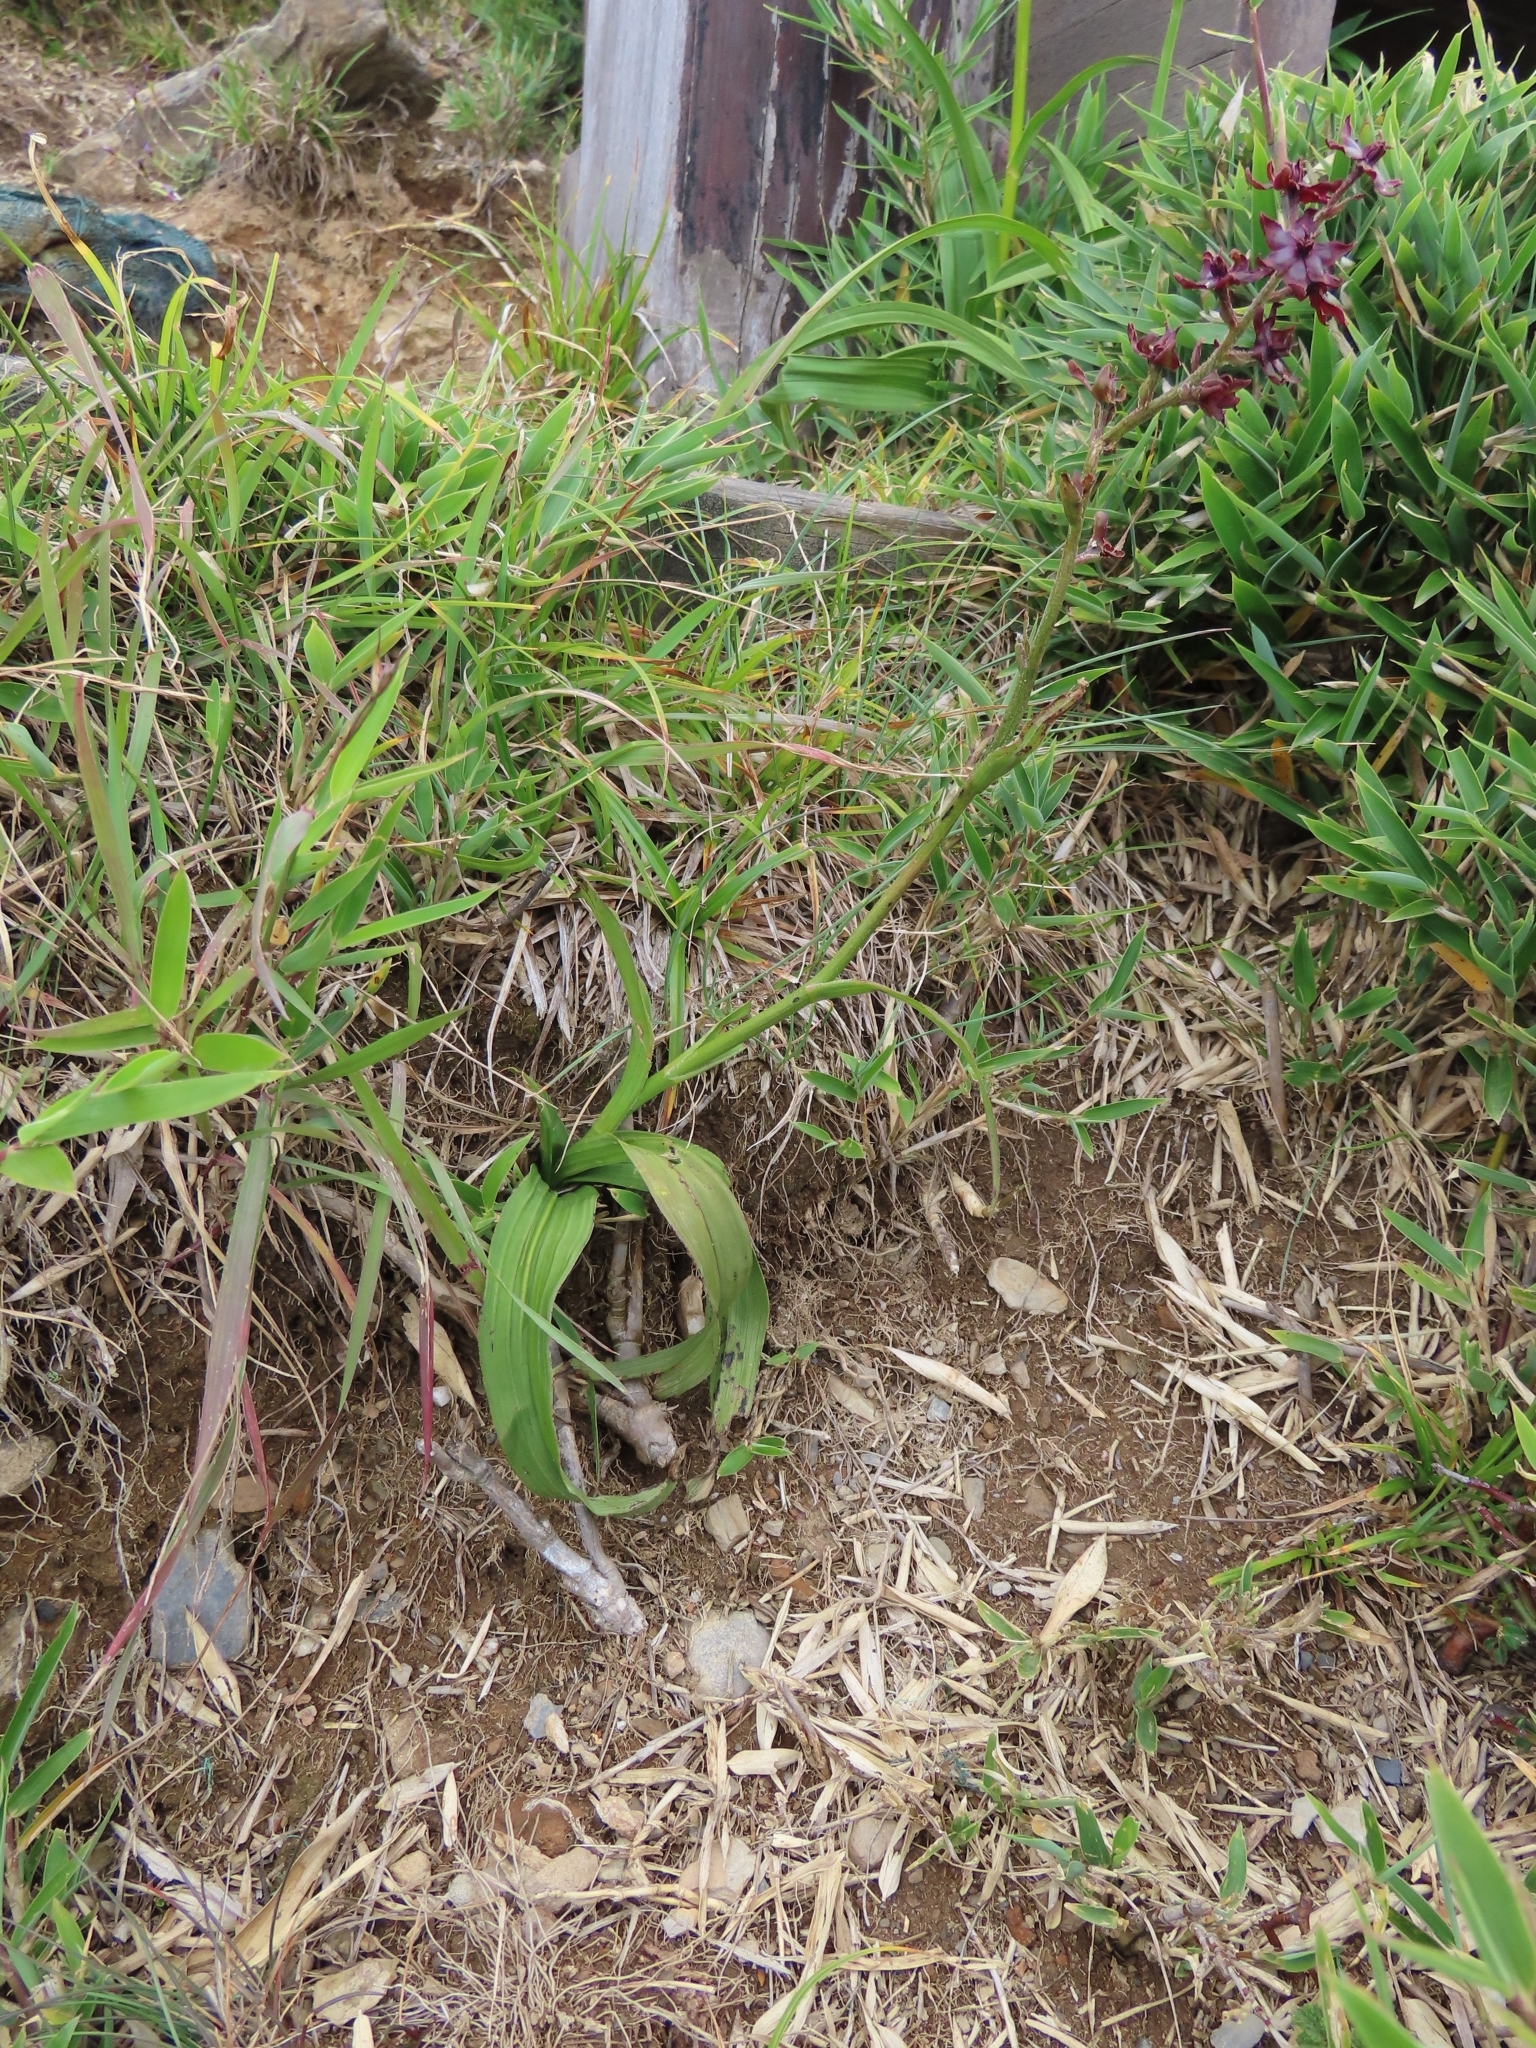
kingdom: Plantae
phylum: Tracheophyta
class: Liliopsida
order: Liliales
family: Melanthiaceae
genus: Veratrum
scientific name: Veratrum formosanum
